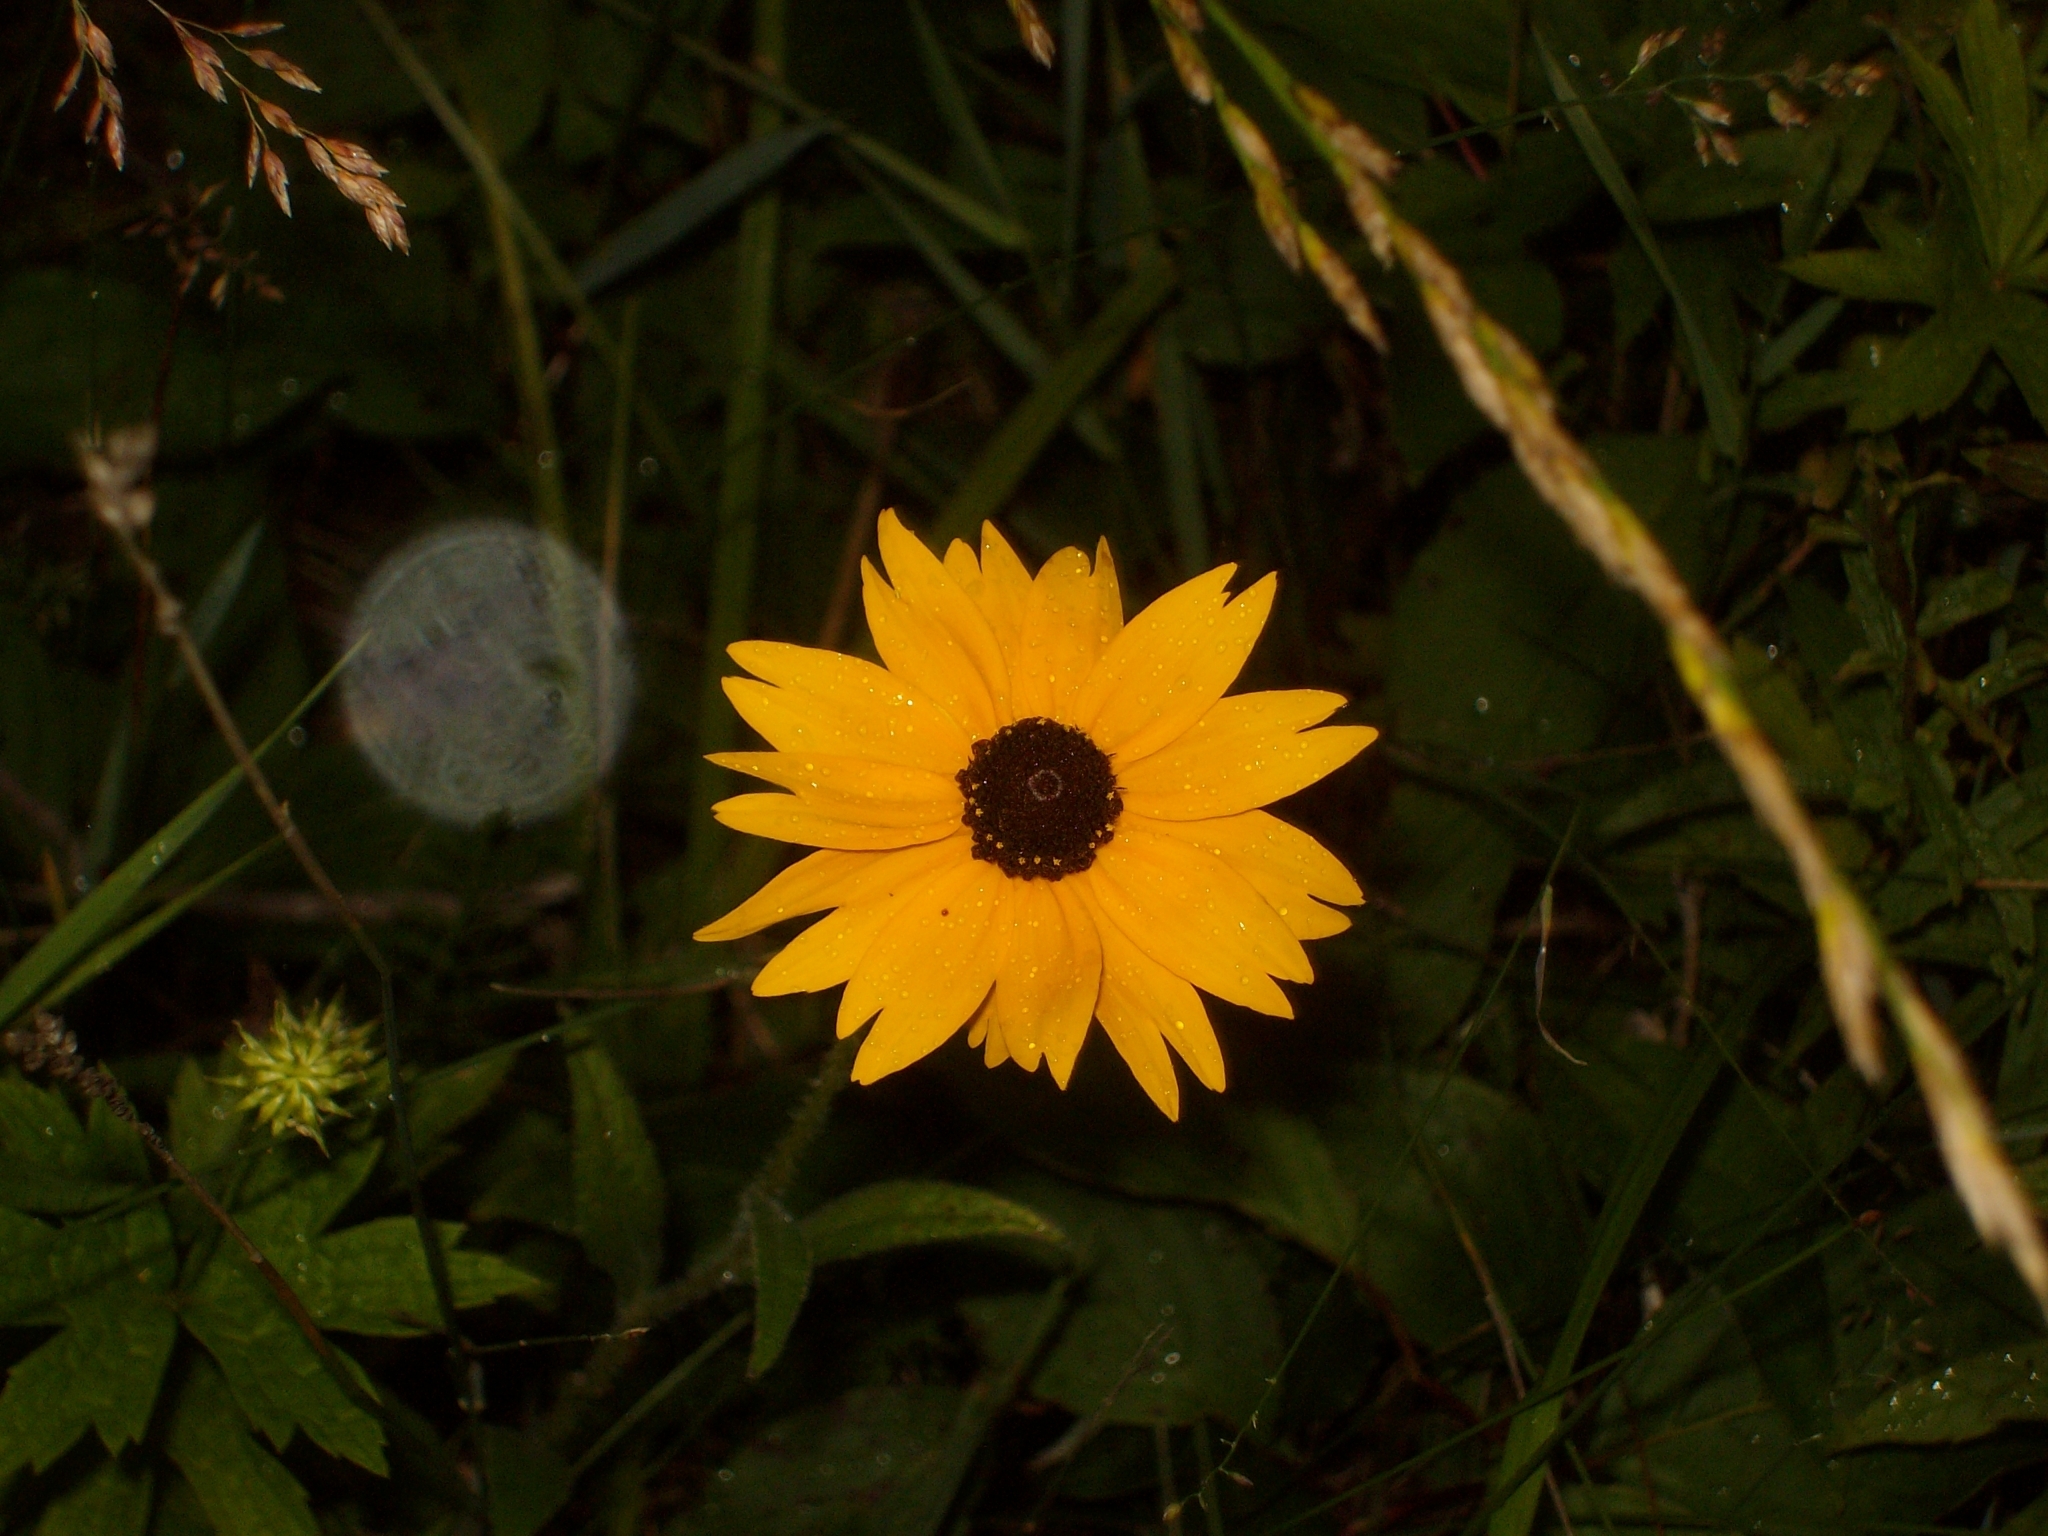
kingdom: Plantae
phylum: Tracheophyta
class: Magnoliopsida
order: Asterales
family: Asteraceae
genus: Rudbeckia
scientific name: Rudbeckia hirta
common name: Black-eyed-susan
